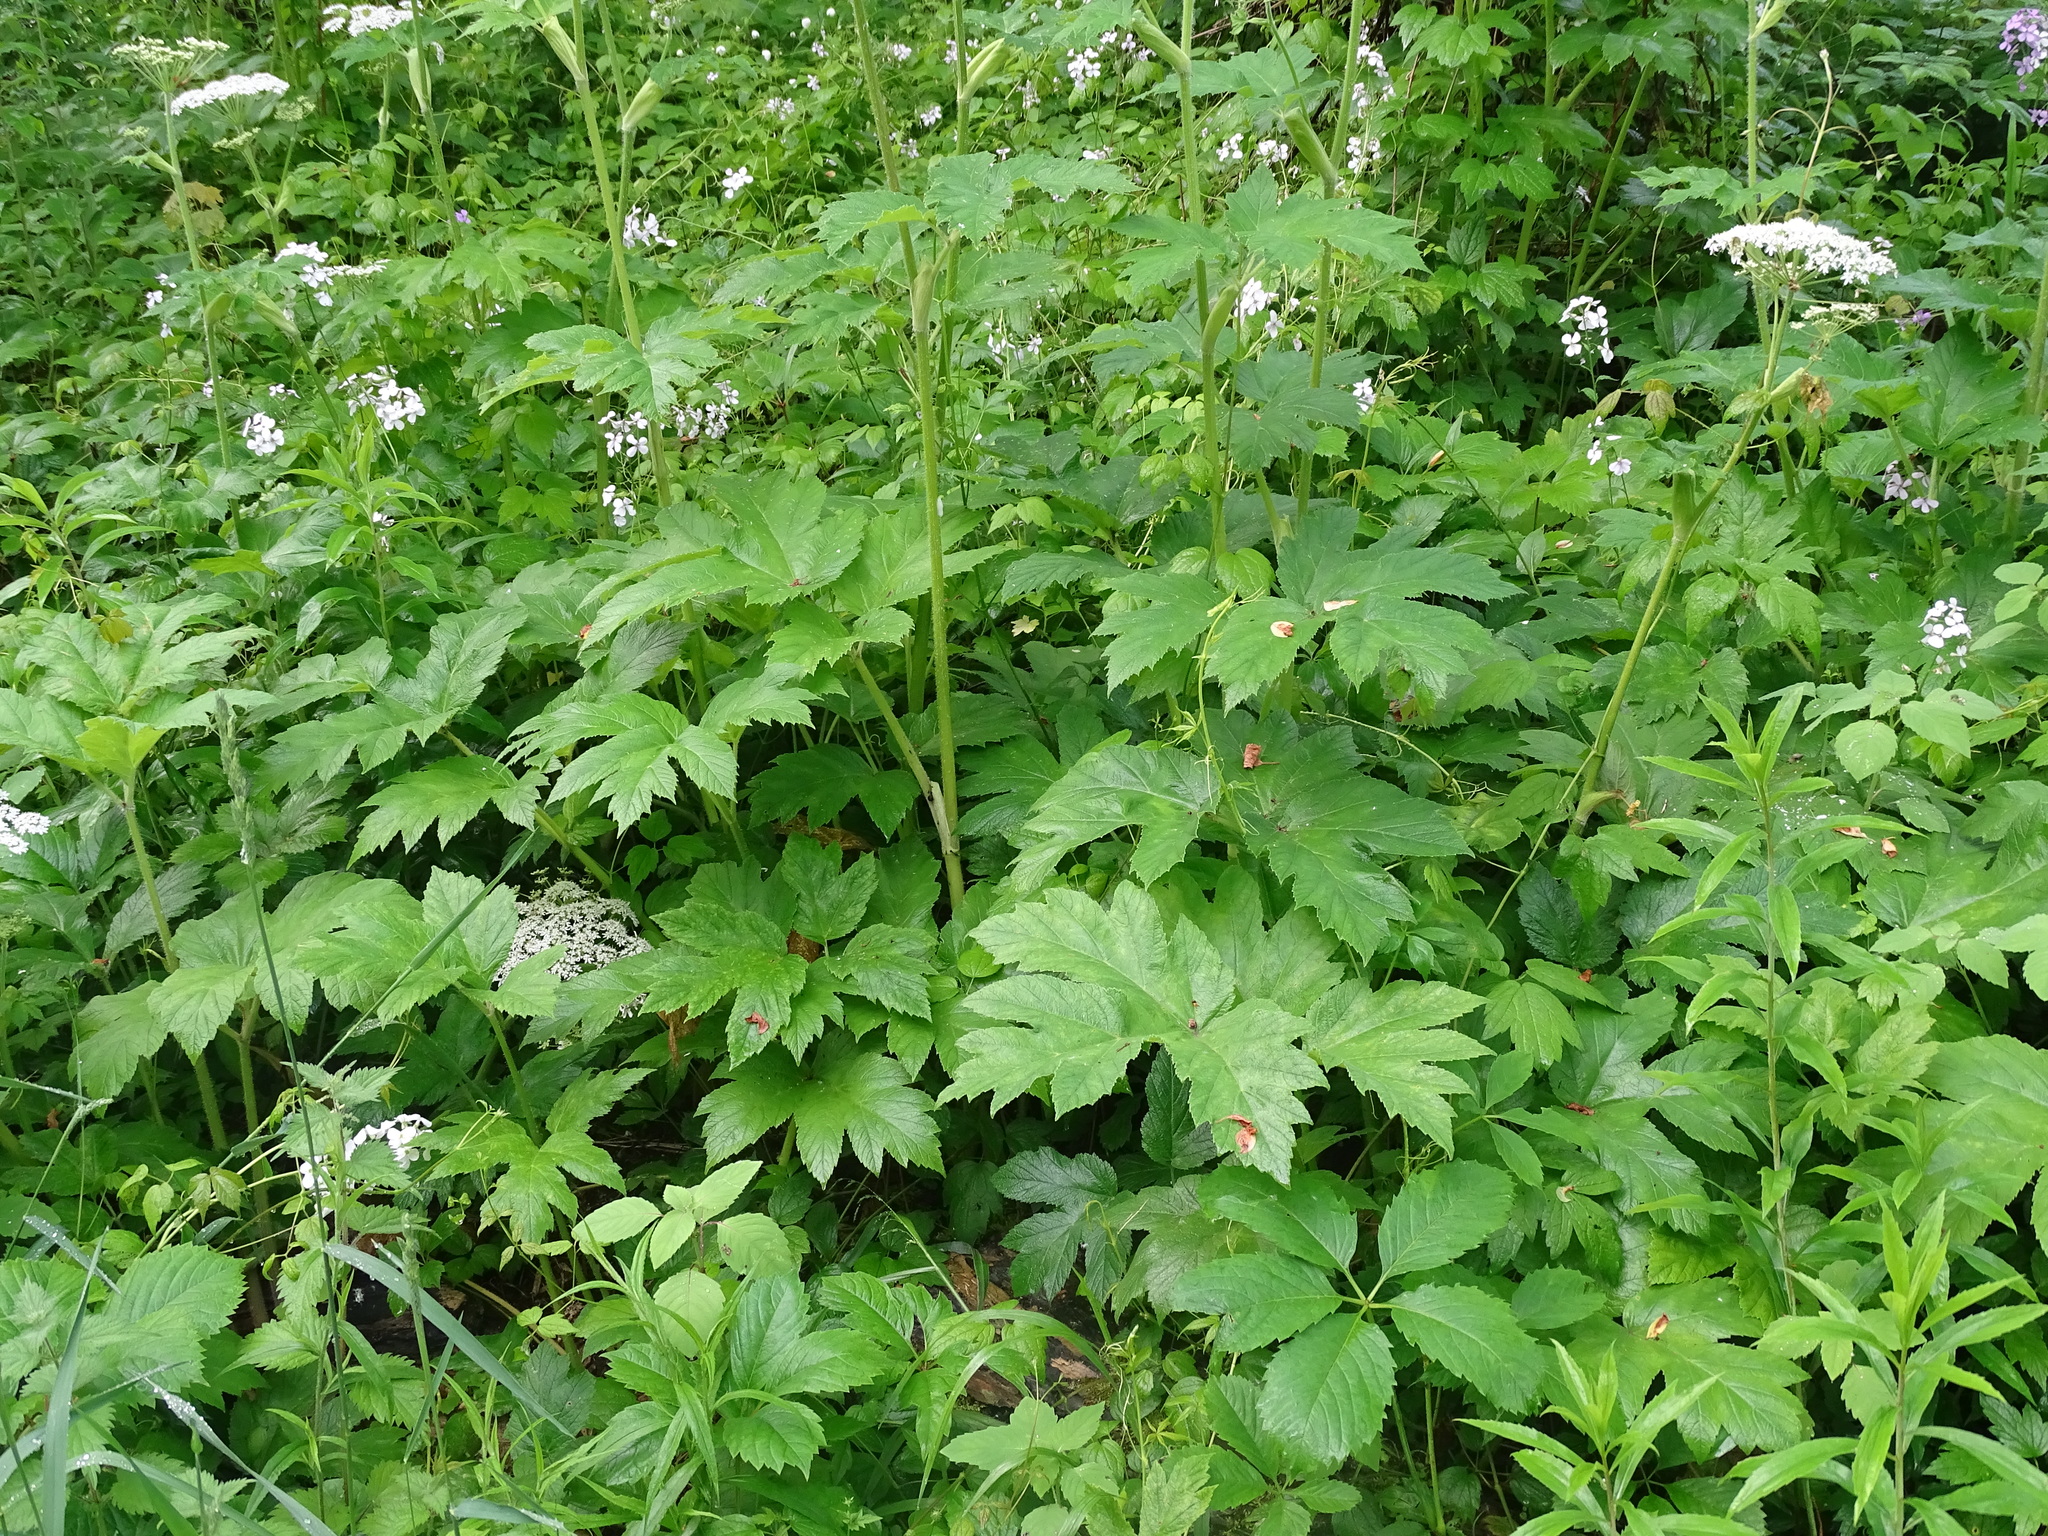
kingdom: Plantae
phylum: Tracheophyta
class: Magnoliopsida
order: Apiales
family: Apiaceae
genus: Heracleum
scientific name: Heracleum maximum
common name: American cow parsnip
